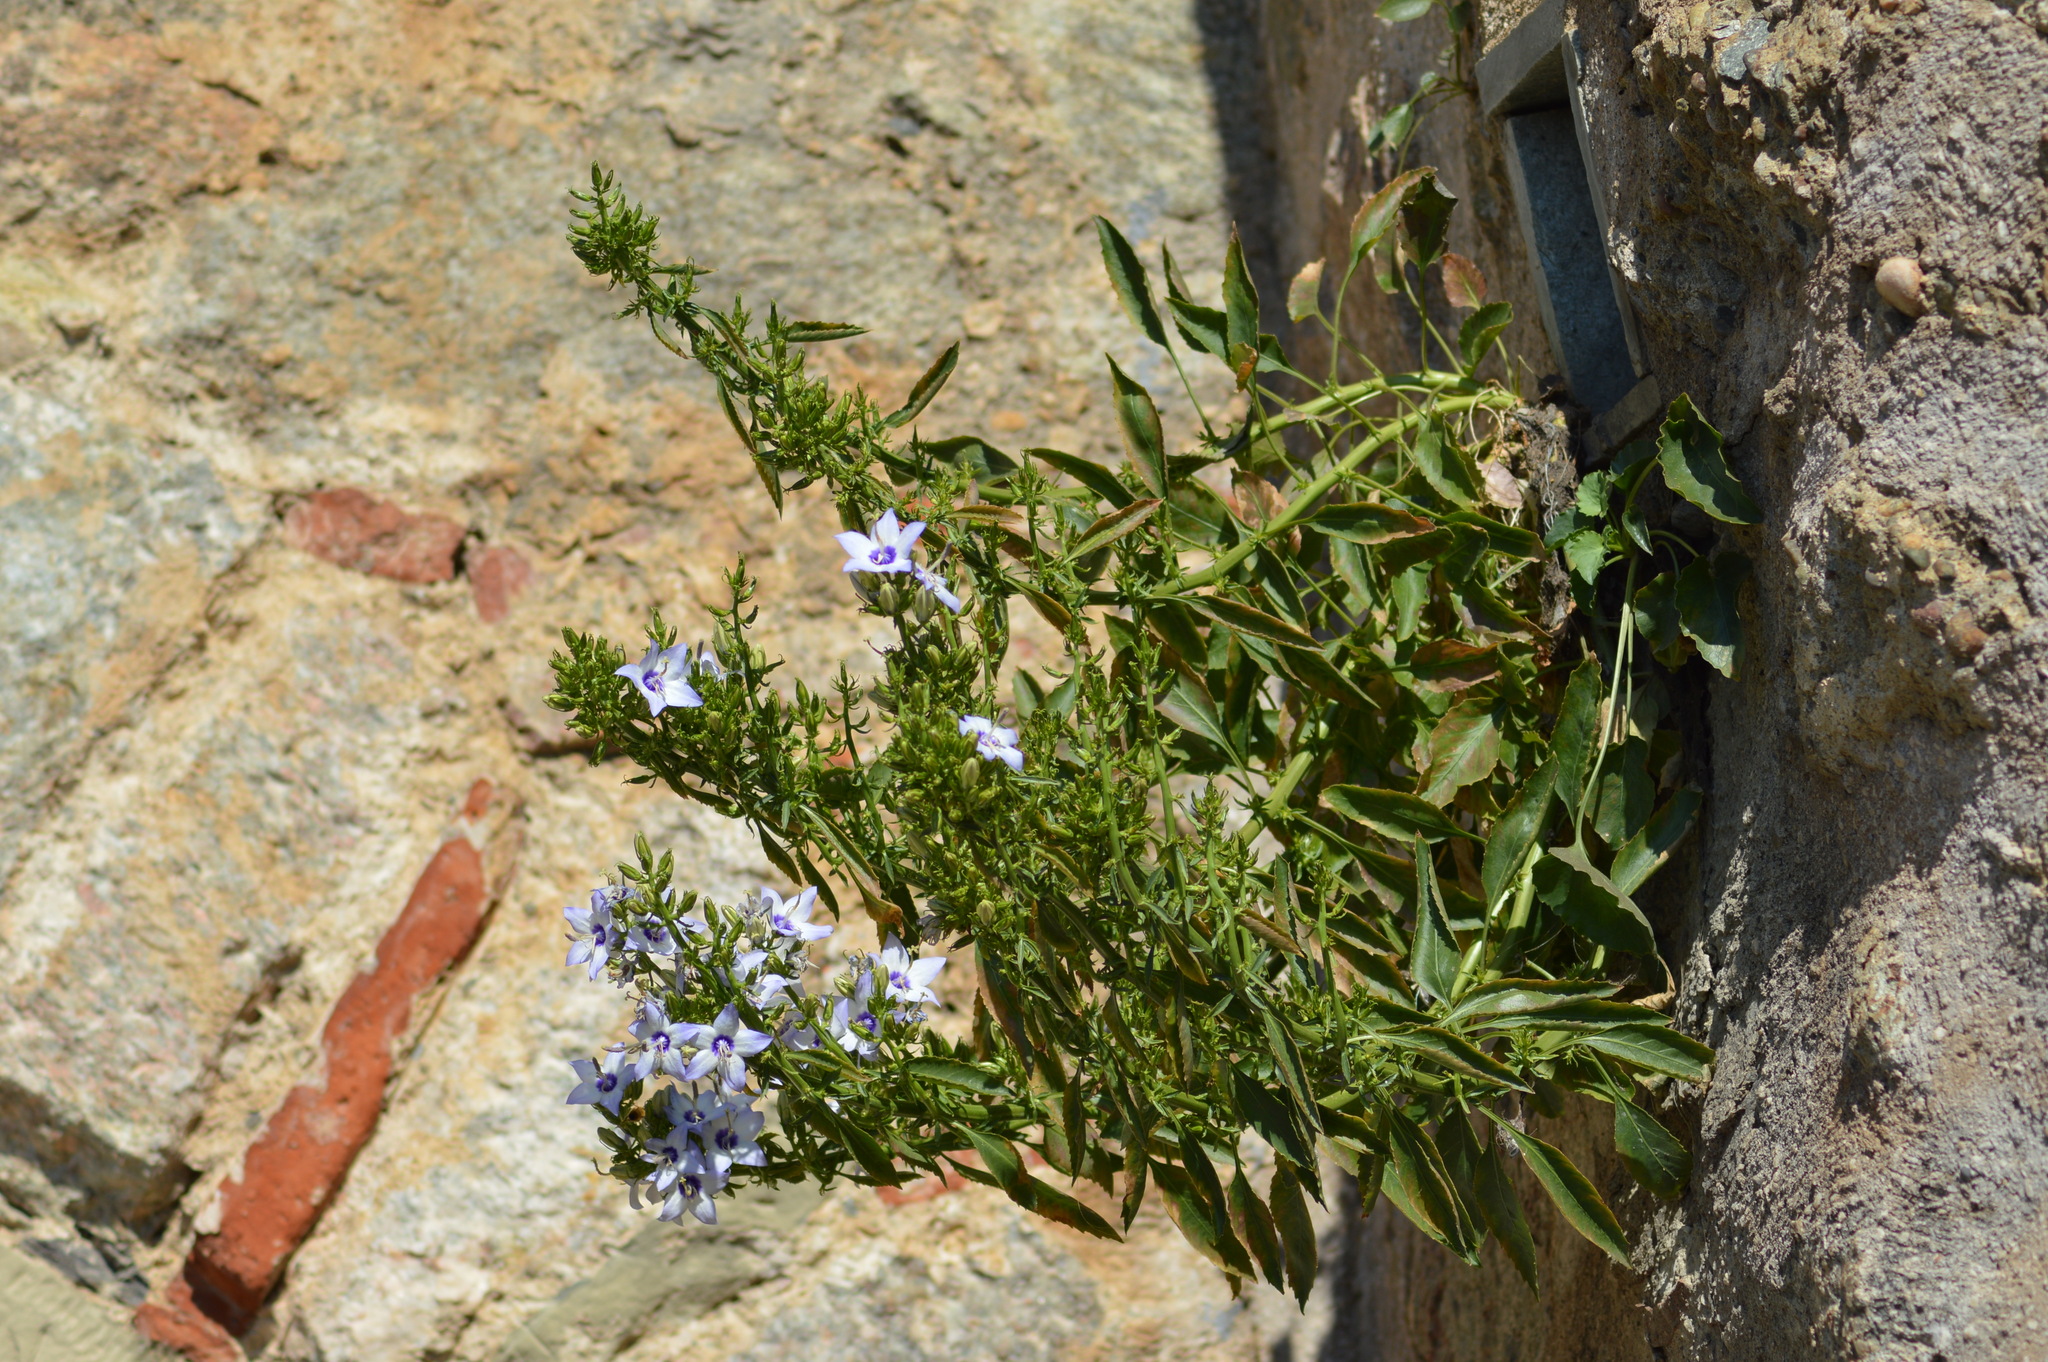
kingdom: Plantae
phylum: Tracheophyta
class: Magnoliopsida
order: Asterales
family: Campanulaceae
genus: Campanula
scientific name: Campanula versicolor
